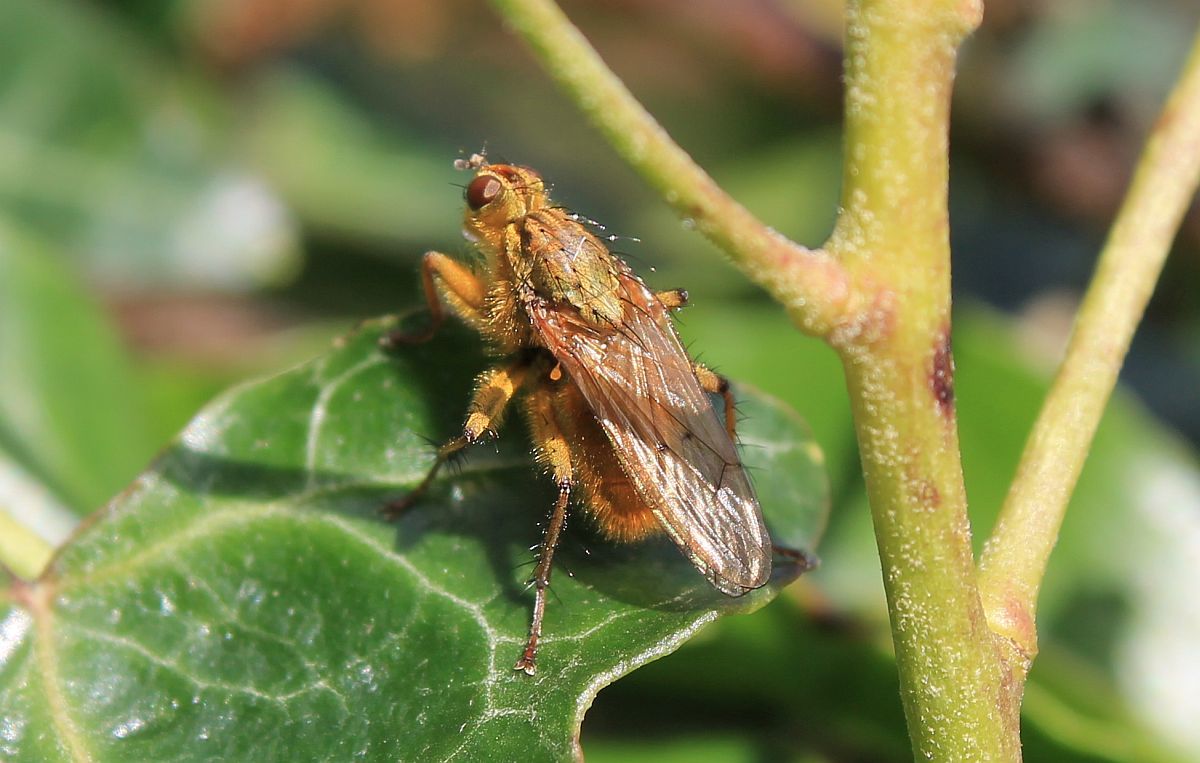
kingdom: Animalia
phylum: Arthropoda
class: Insecta
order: Diptera
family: Scathophagidae
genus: Scathophaga
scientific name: Scathophaga stercoraria
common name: Yellow dung fly
